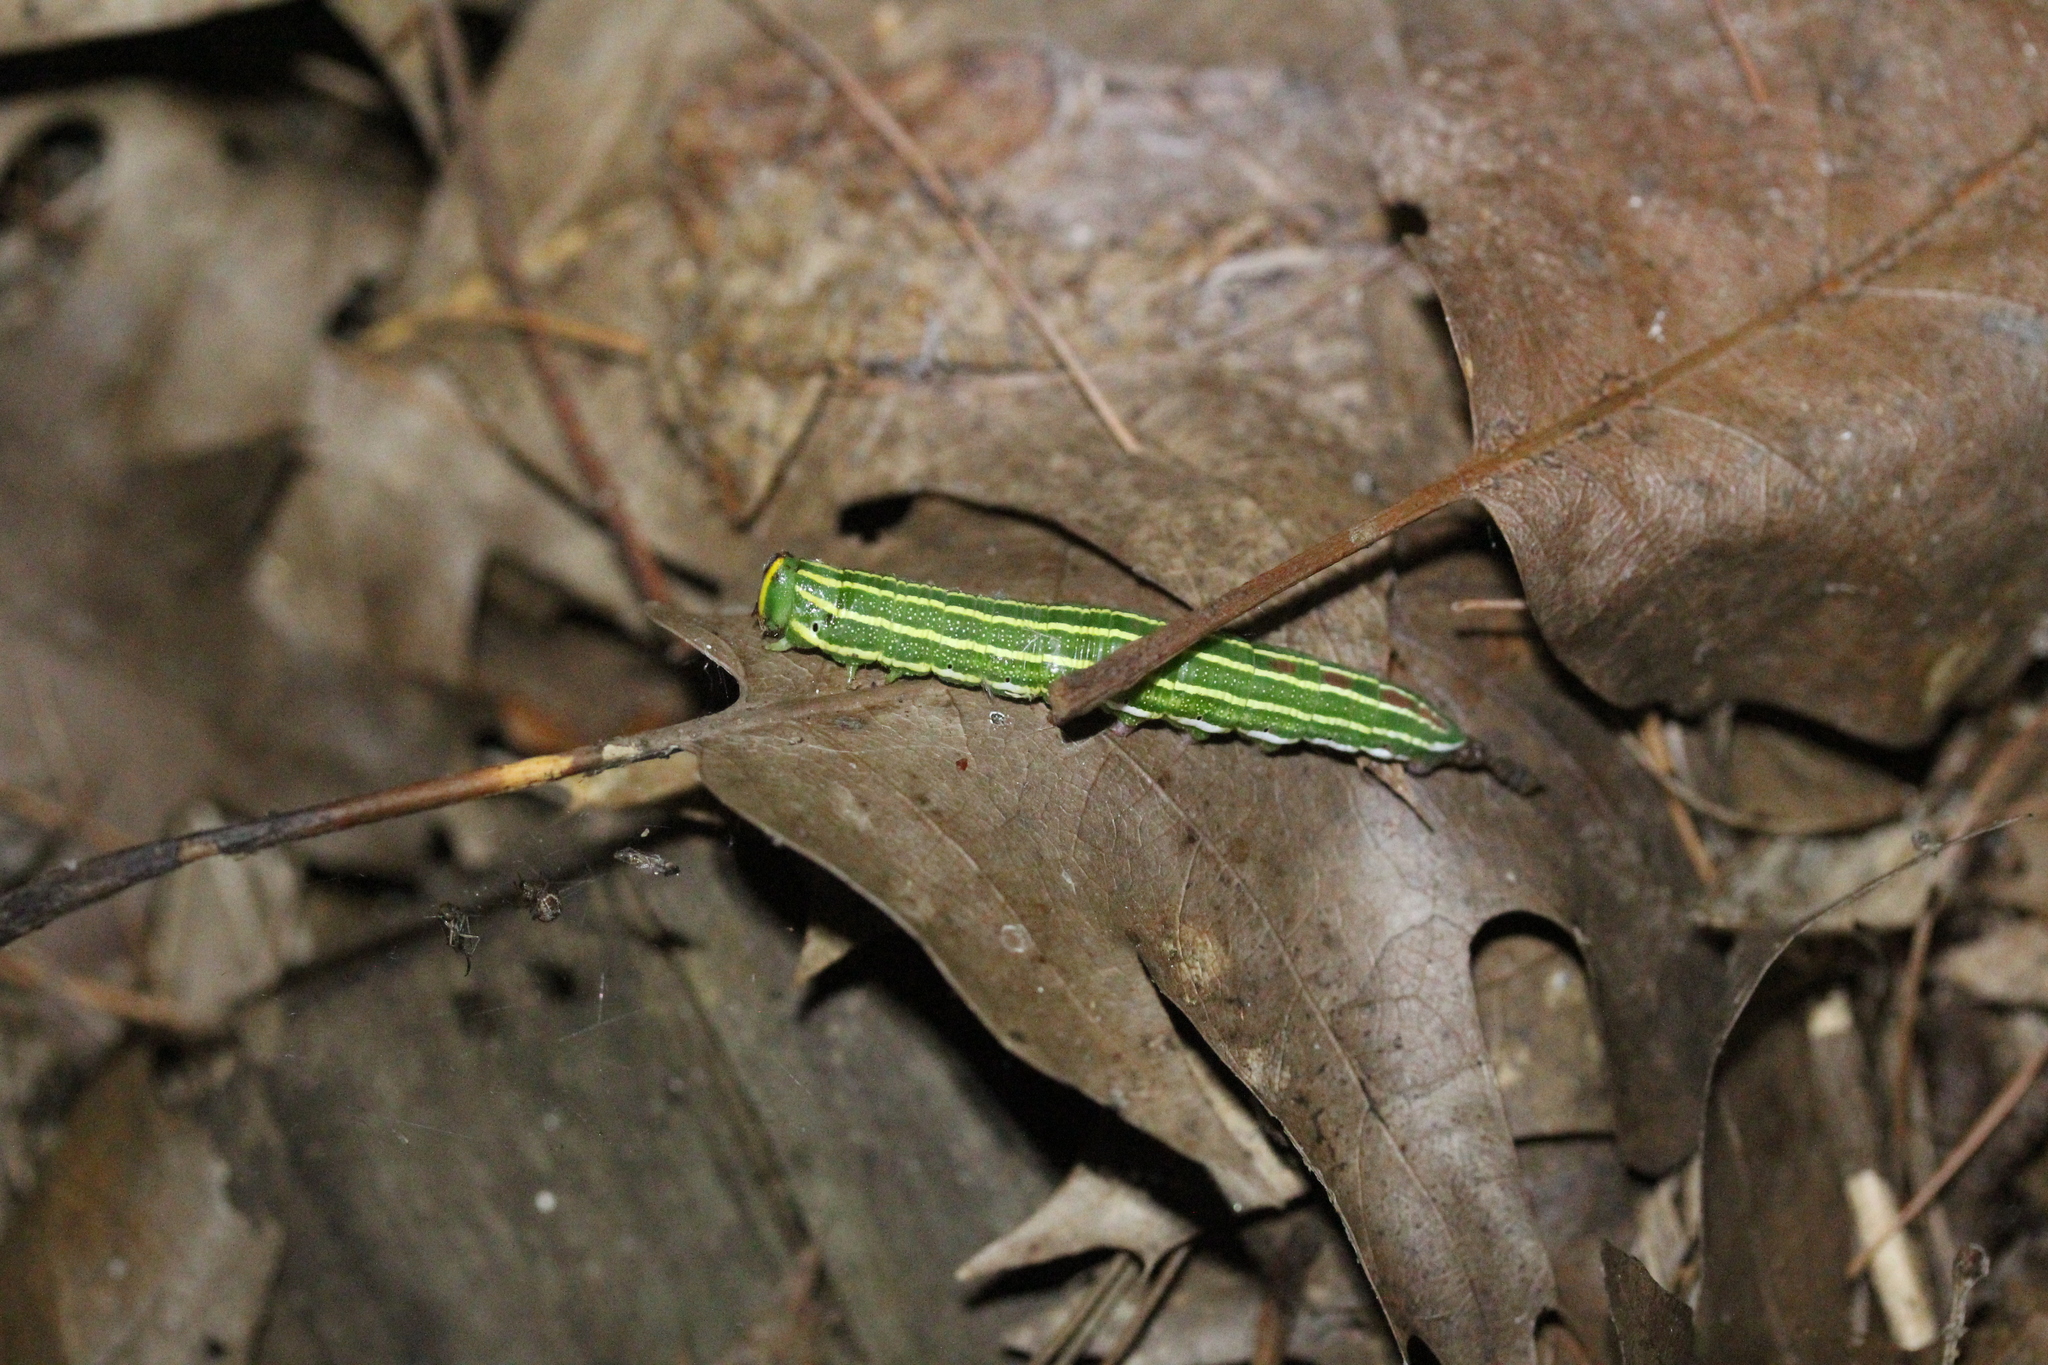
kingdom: Animalia
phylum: Arthropoda
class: Insecta
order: Lepidoptera
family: Sphingidae
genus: Lapara
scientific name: Lapara bombycoides
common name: Northern pine sphinx
